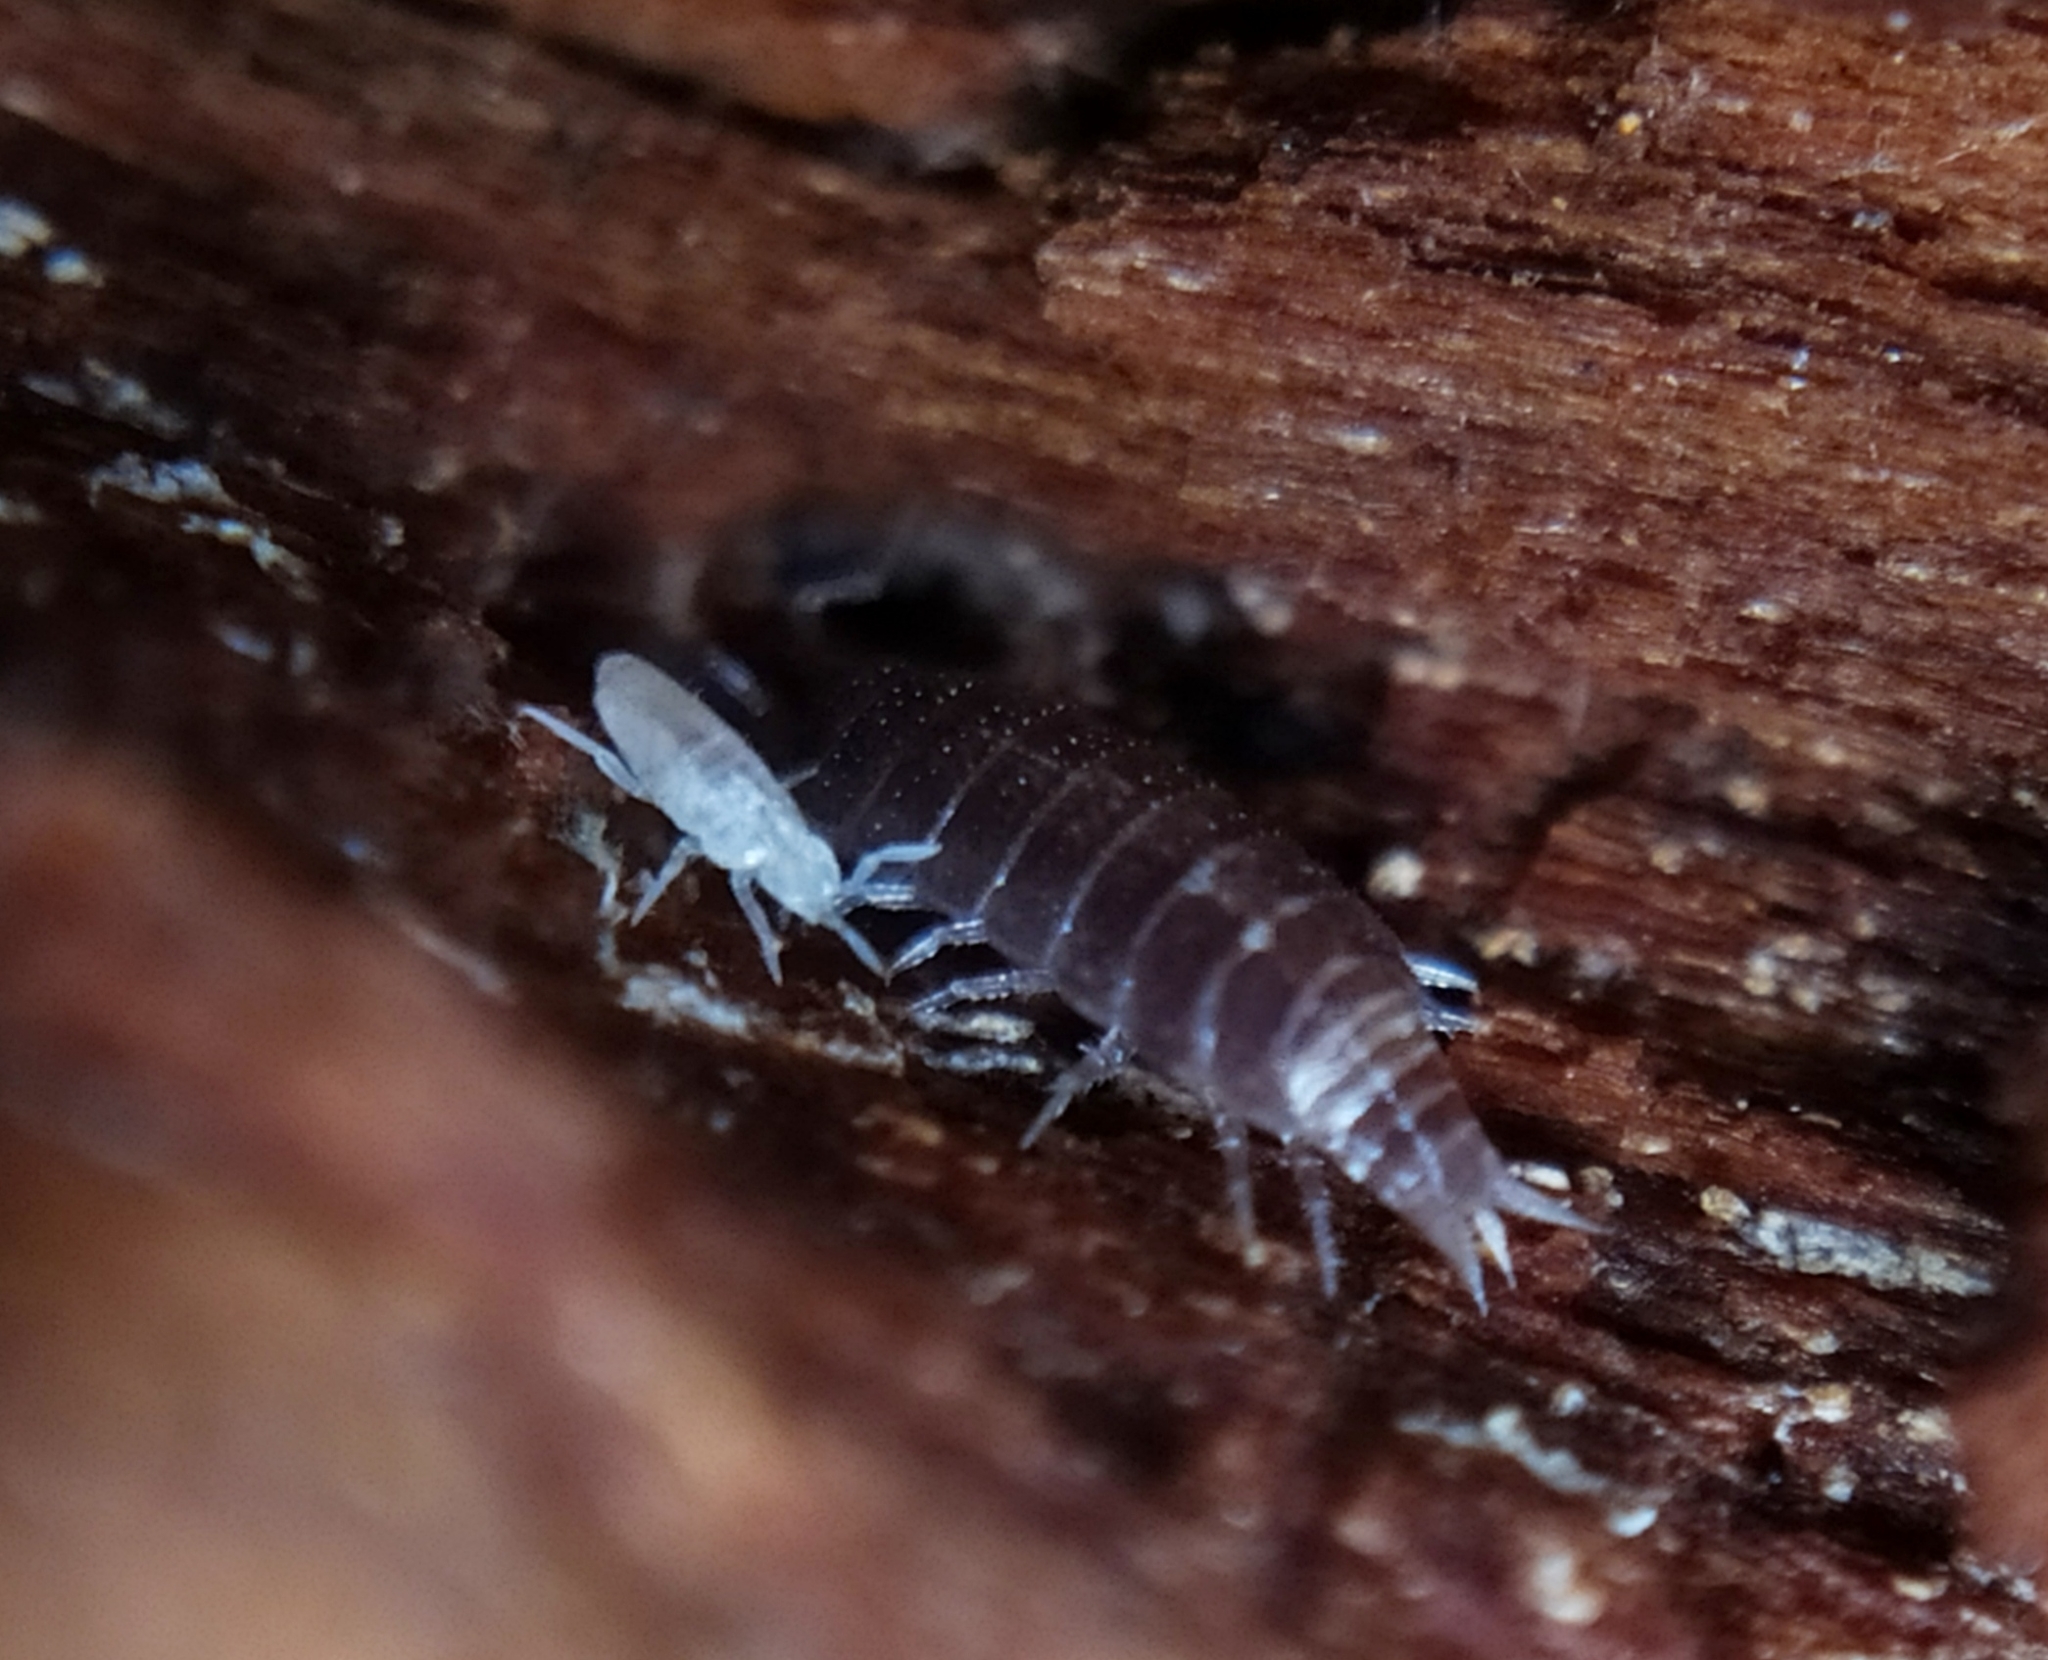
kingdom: Animalia
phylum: Arthropoda
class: Collembola
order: Entomobryomorpha
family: Paronellidae
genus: Cyphoderus
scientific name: Cyphoderus albinus
